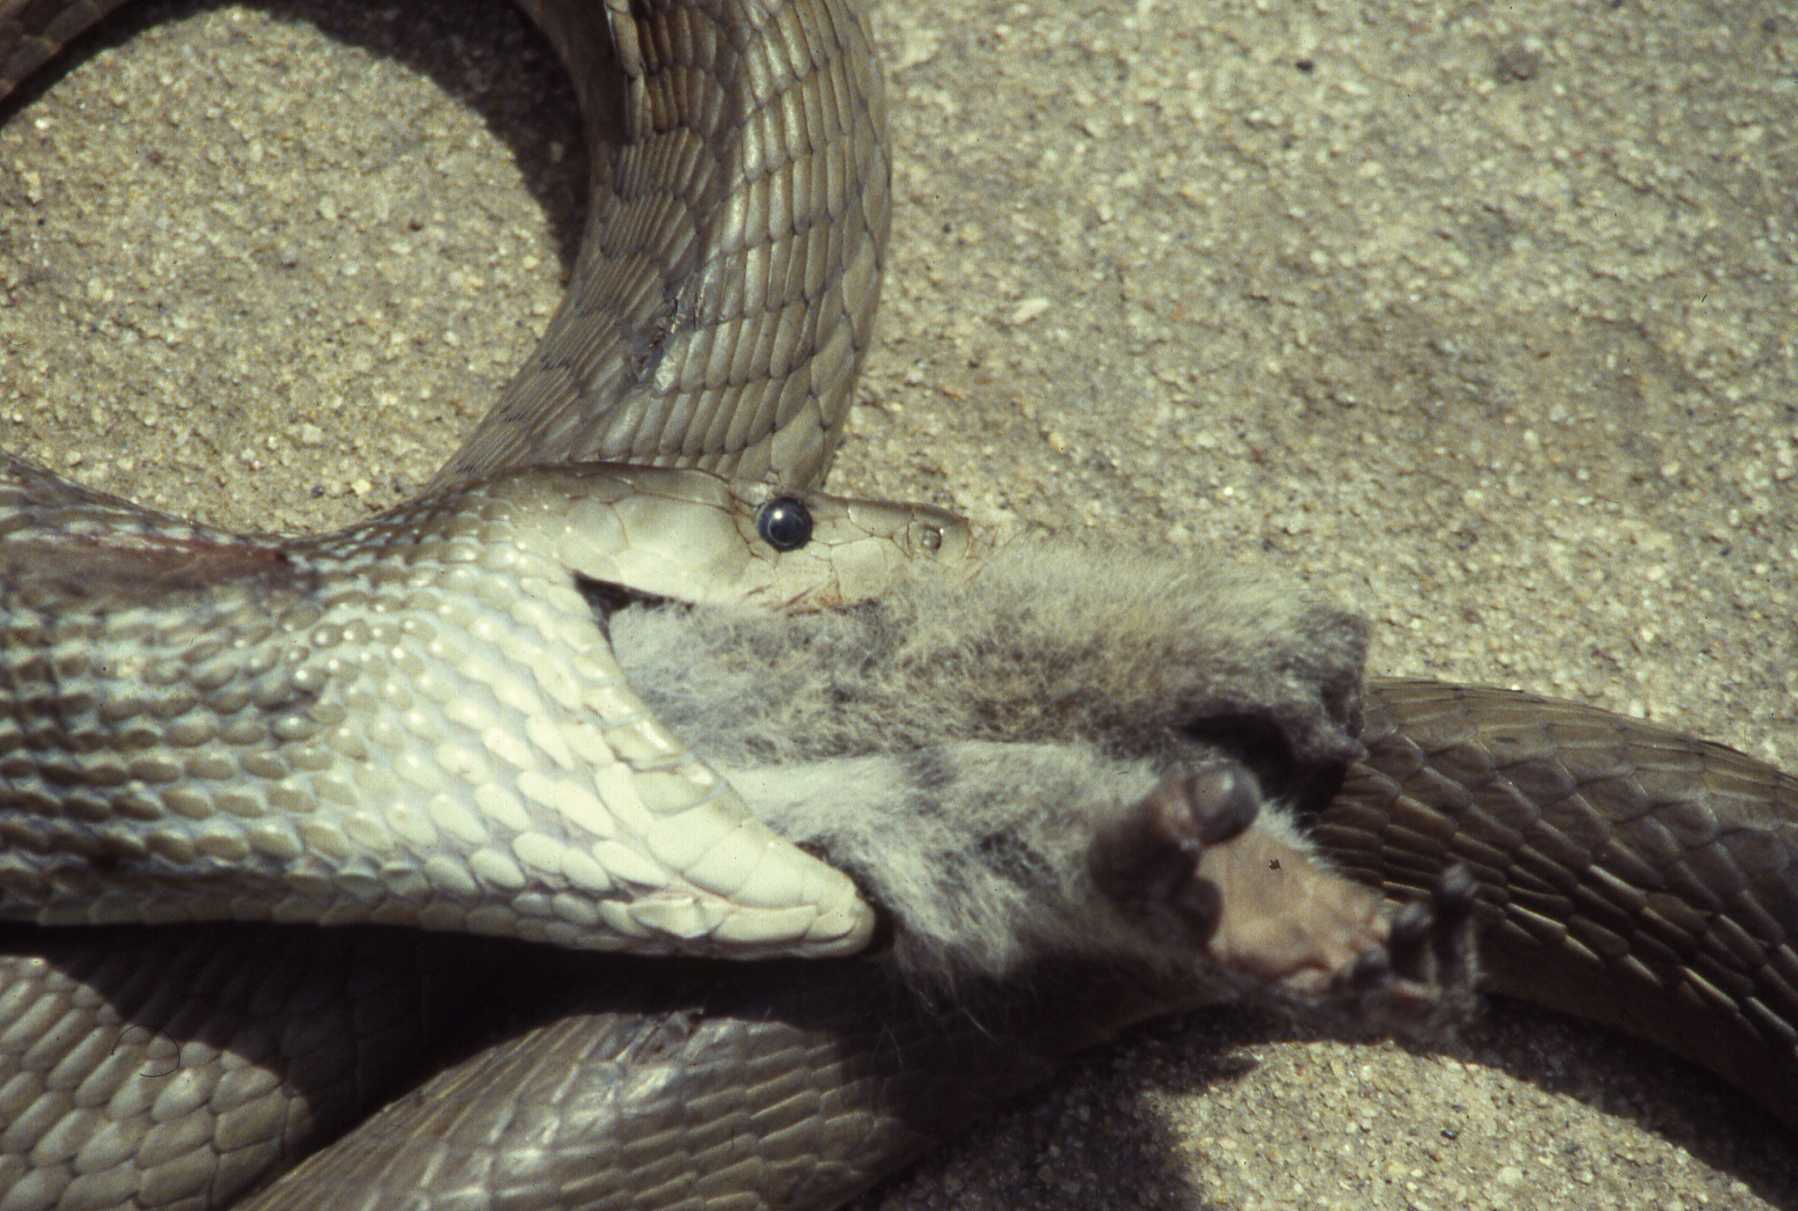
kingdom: Animalia
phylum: Chordata
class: Squamata
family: Elapidae
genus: Dendroaspis
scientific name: Dendroaspis polylepis
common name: Black mamba
